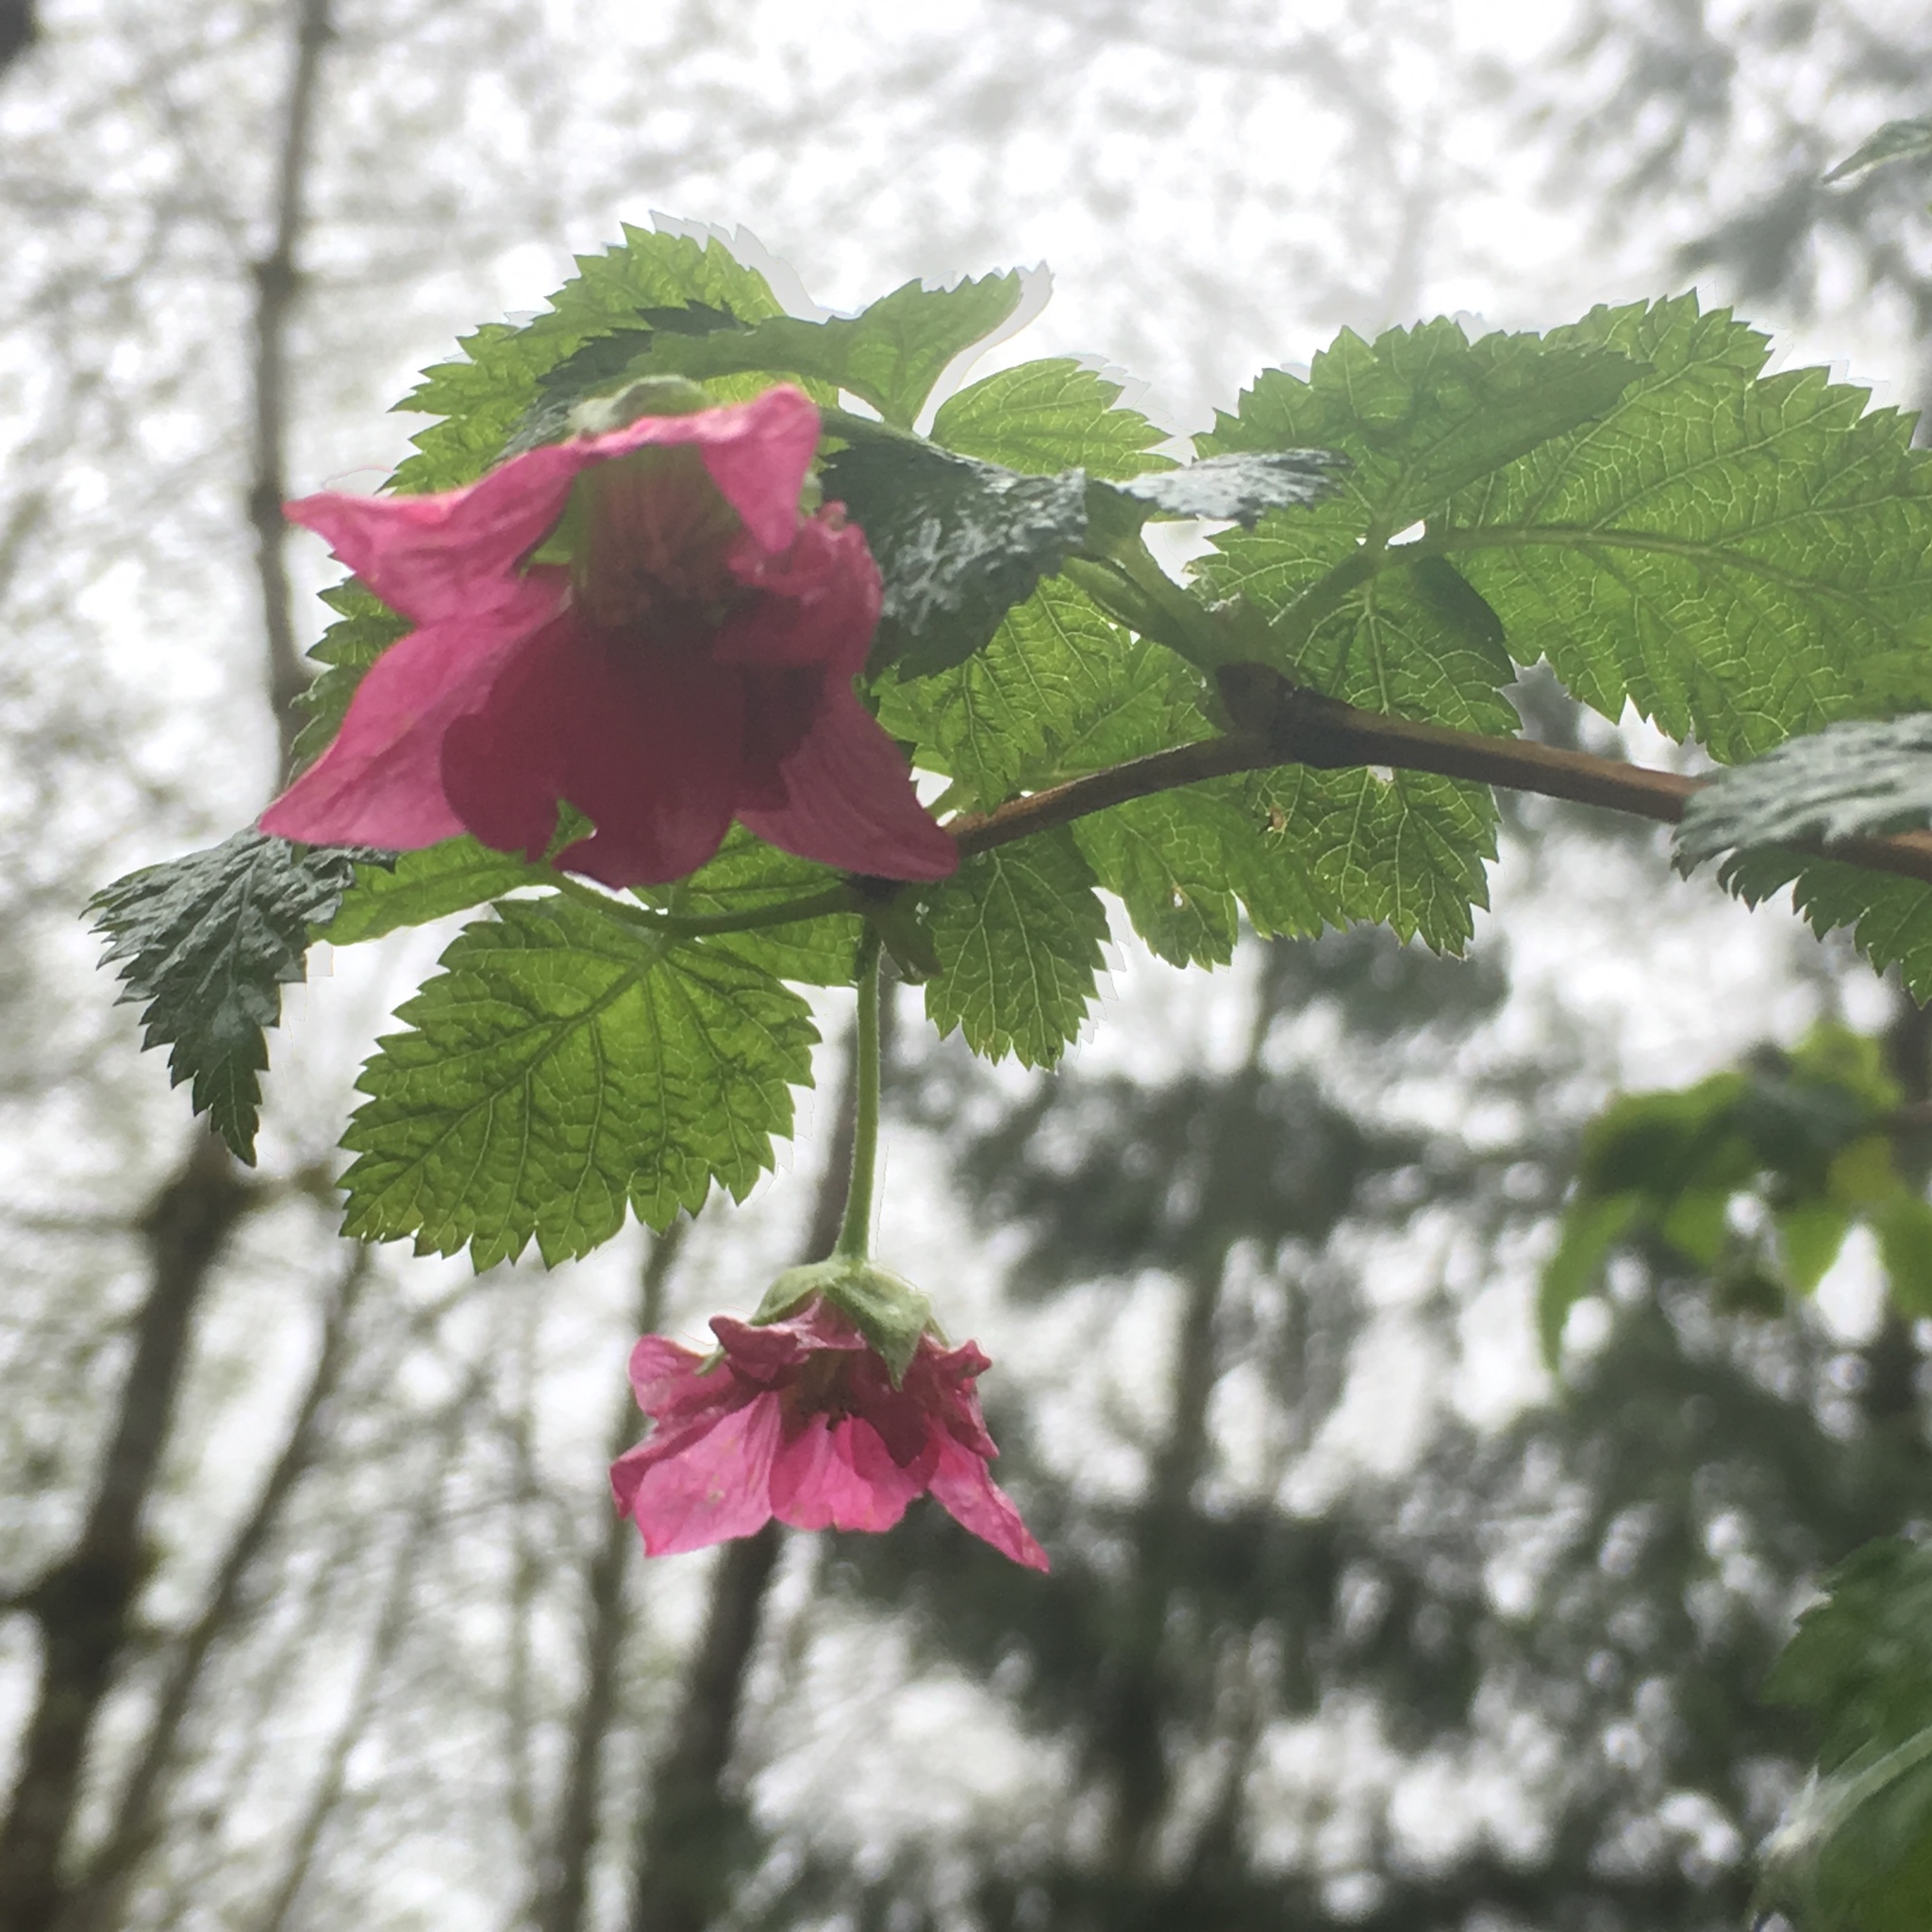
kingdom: Plantae
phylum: Tracheophyta
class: Magnoliopsida
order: Rosales
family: Rosaceae
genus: Rubus
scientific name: Rubus spectabilis
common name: Salmonberry
